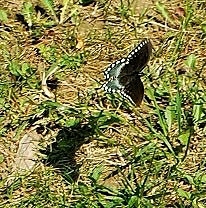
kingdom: Animalia
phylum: Arthropoda
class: Insecta
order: Lepidoptera
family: Papilionidae
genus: Papilio
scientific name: Papilio troilus
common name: Spicebush swallowtail
